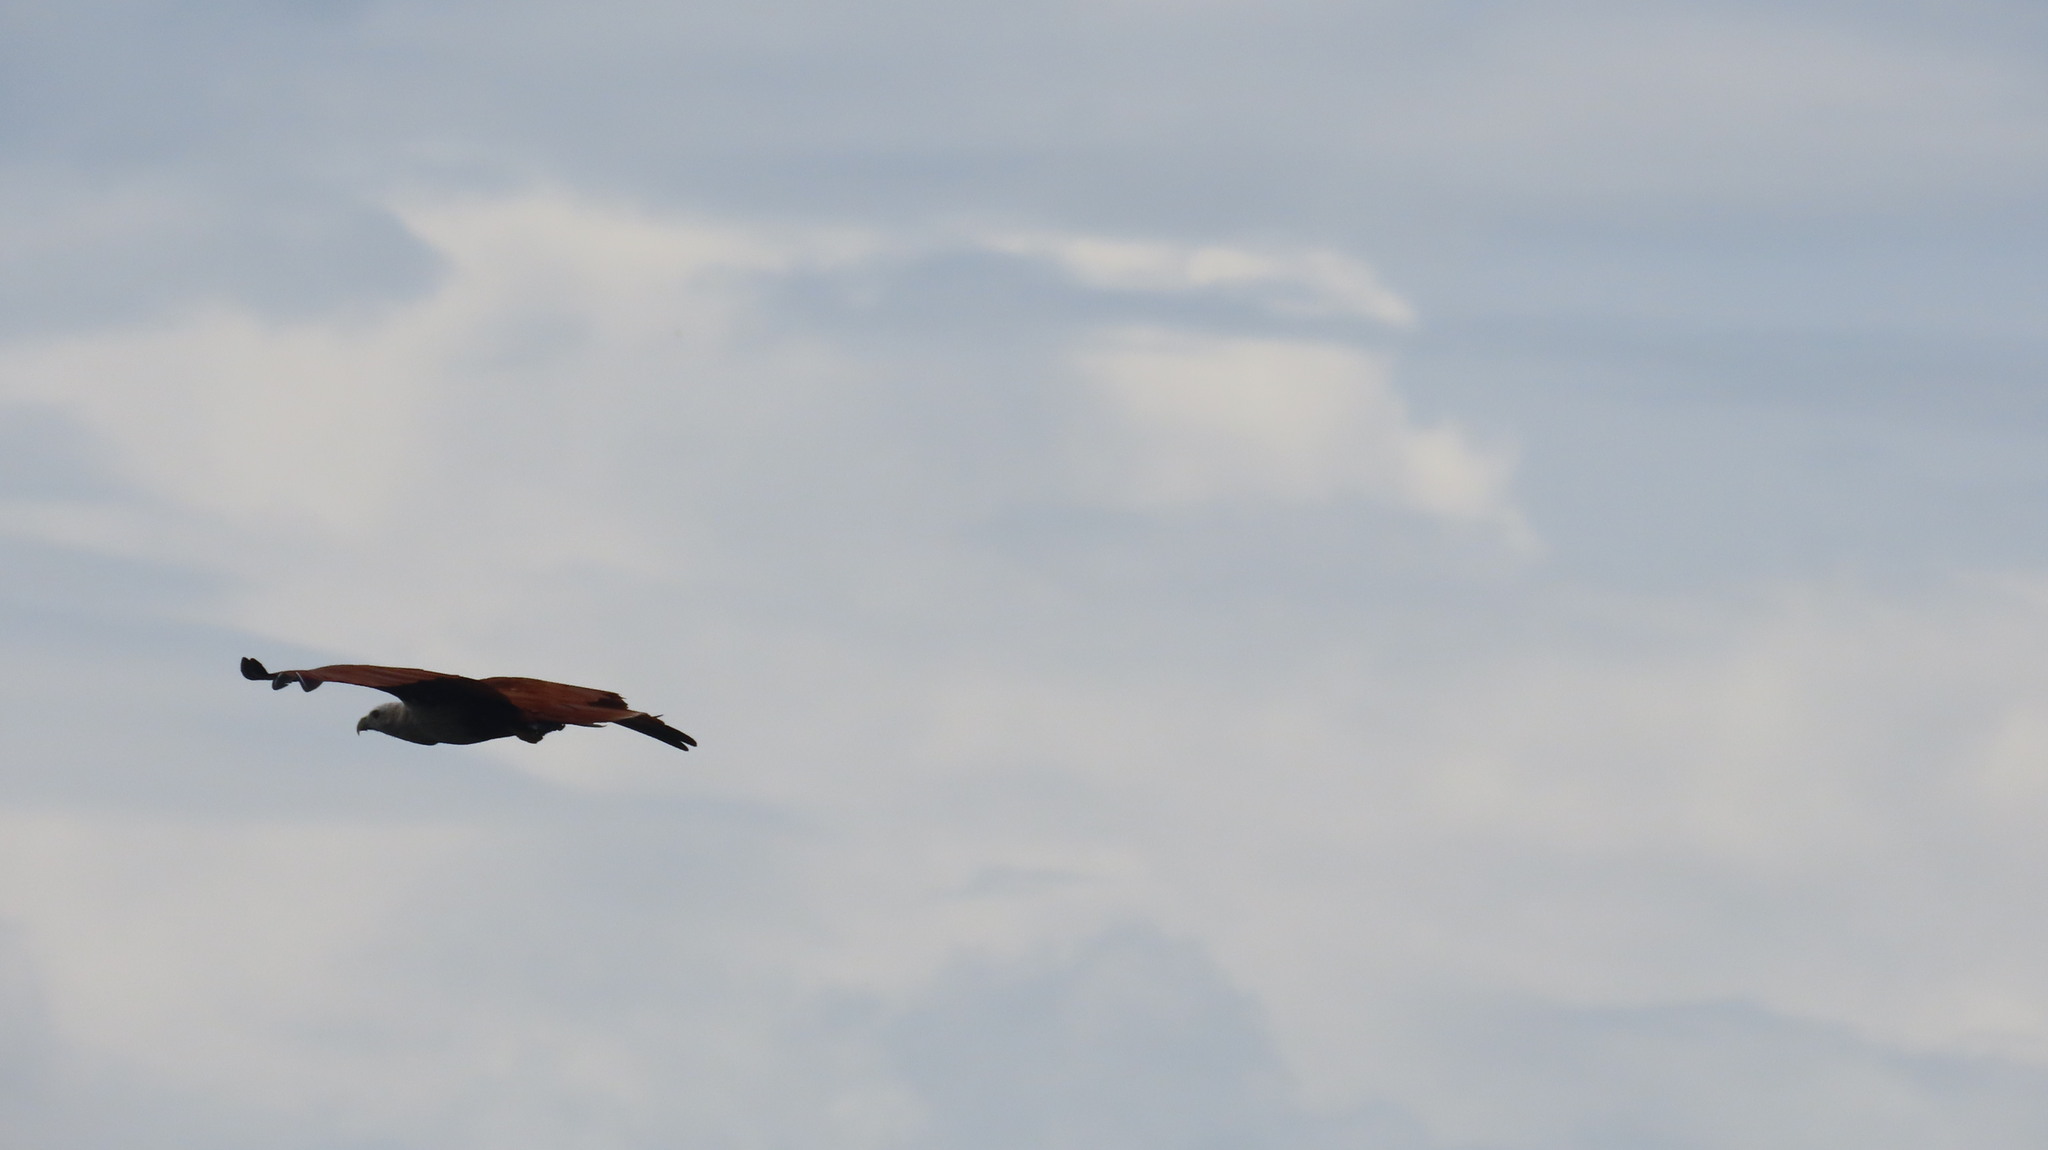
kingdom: Animalia
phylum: Chordata
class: Aves
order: Accipitriformes
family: Accipitridae
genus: Haliastur
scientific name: Haliastur indus
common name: Brahminy kite
